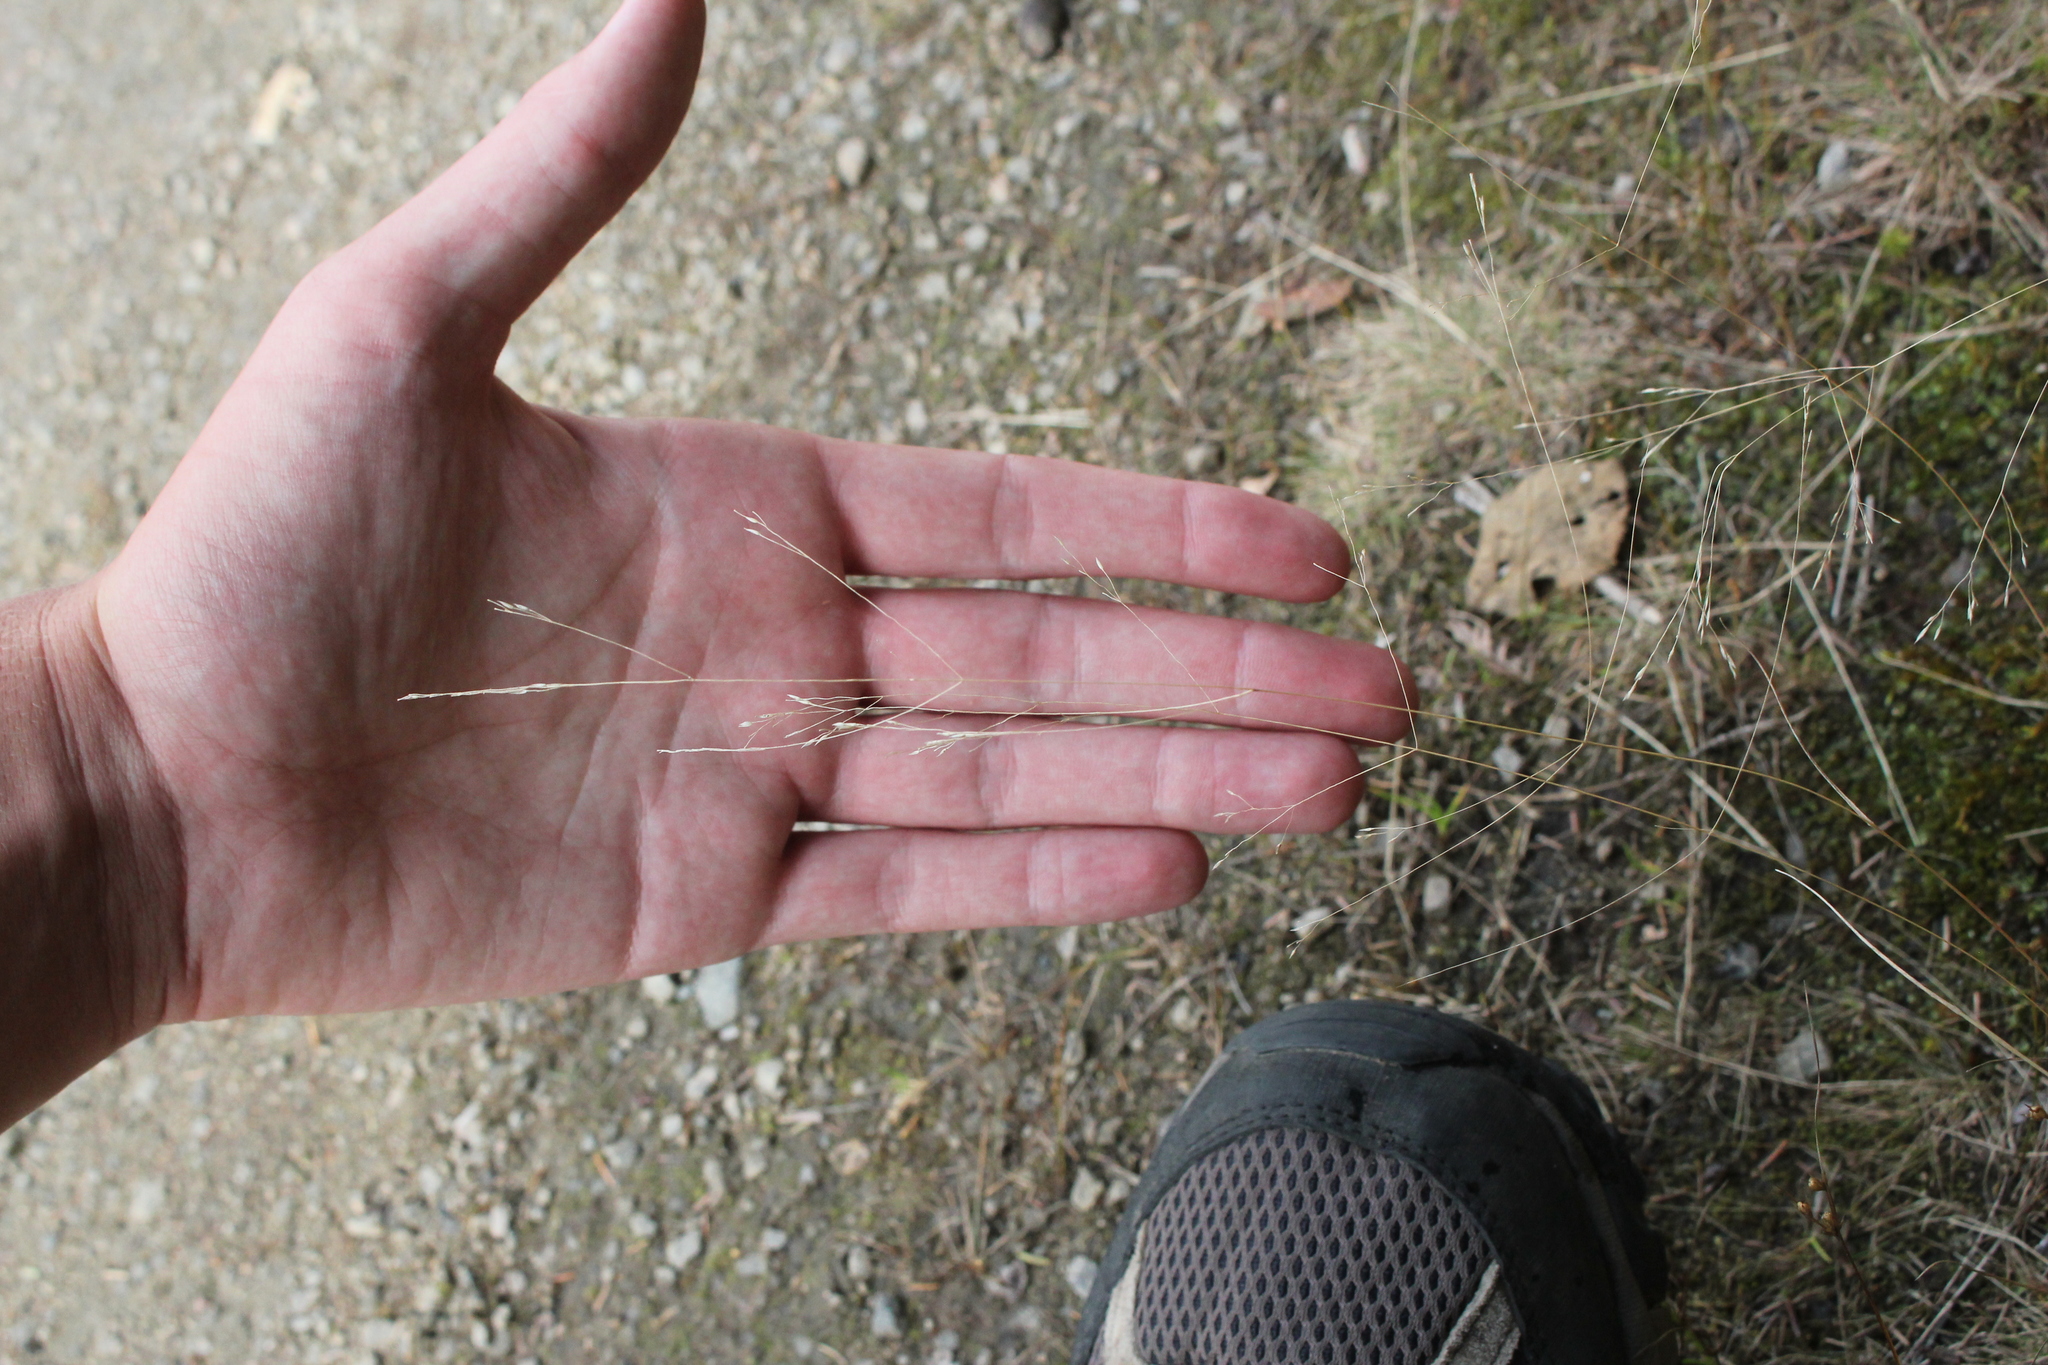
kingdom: Plantae
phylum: Tracheophyta
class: Liliopsida
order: Poales
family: Poaceae
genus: Agrostis
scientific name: Agrostis scabra
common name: Rough bent
